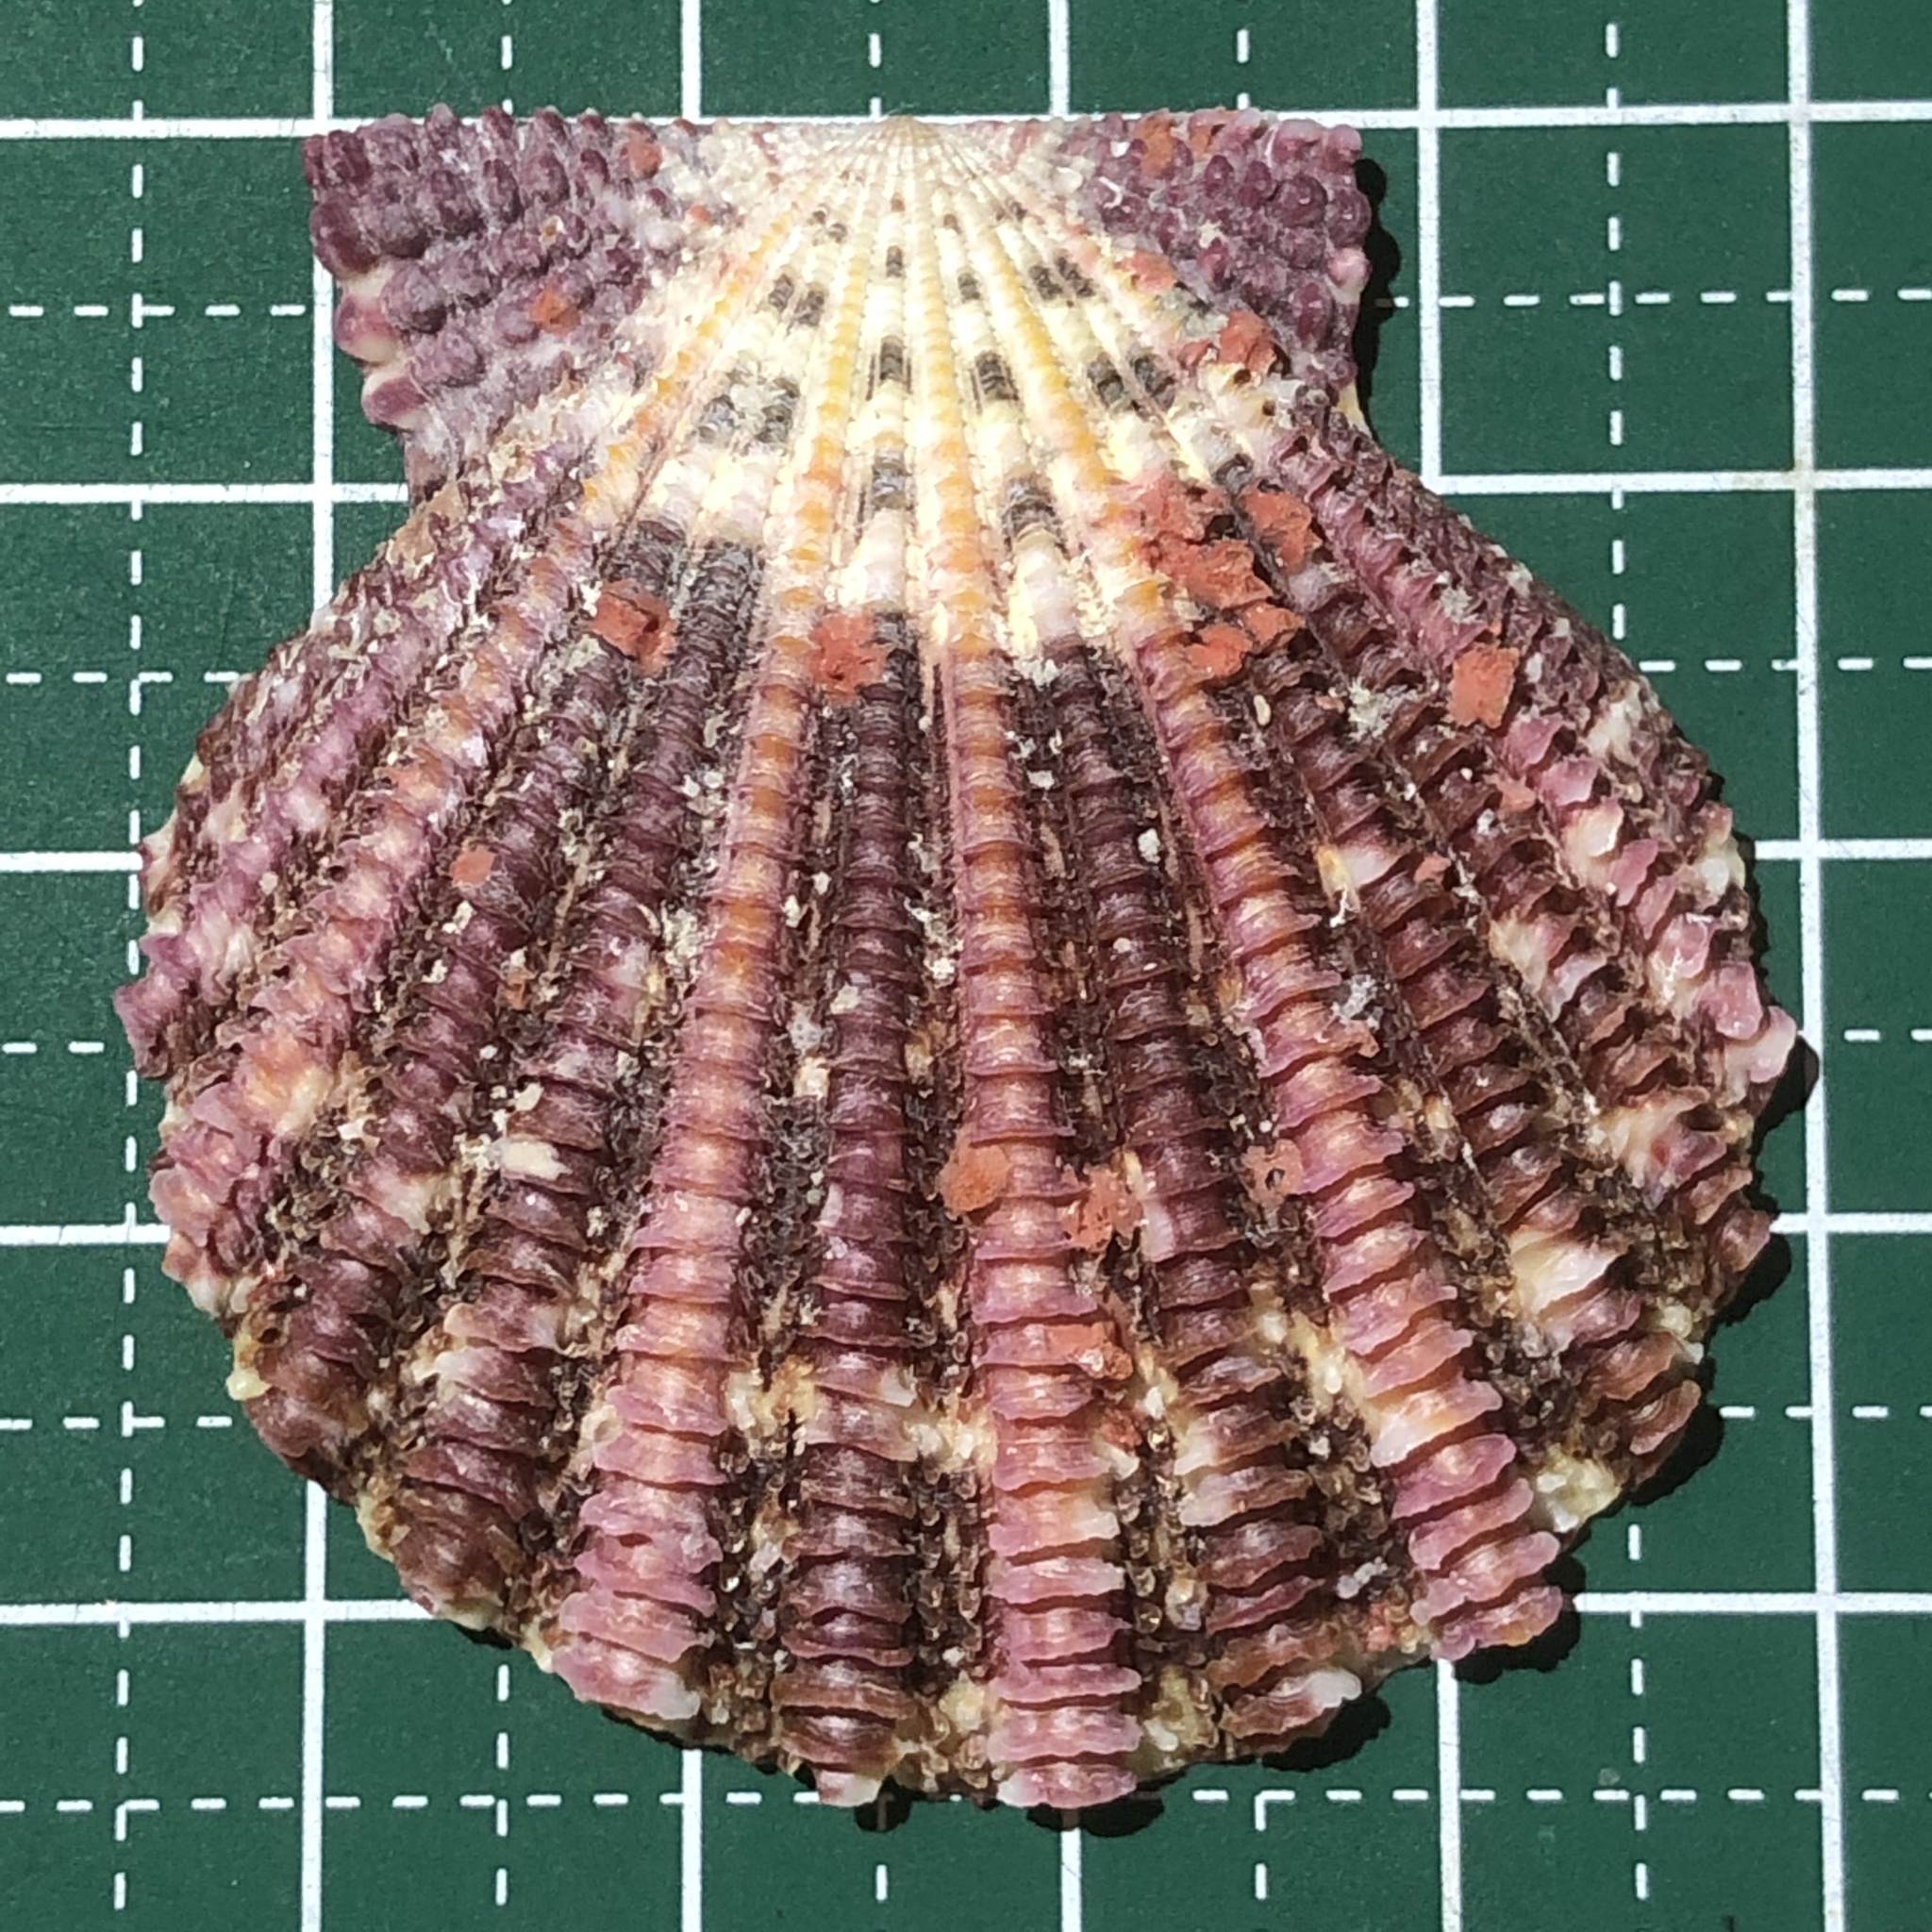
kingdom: Animalia
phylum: Mollusca
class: Bivalvia
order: Pectinida
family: Pectinidae
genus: Gloripallium
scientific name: Gloripallium speciosum
